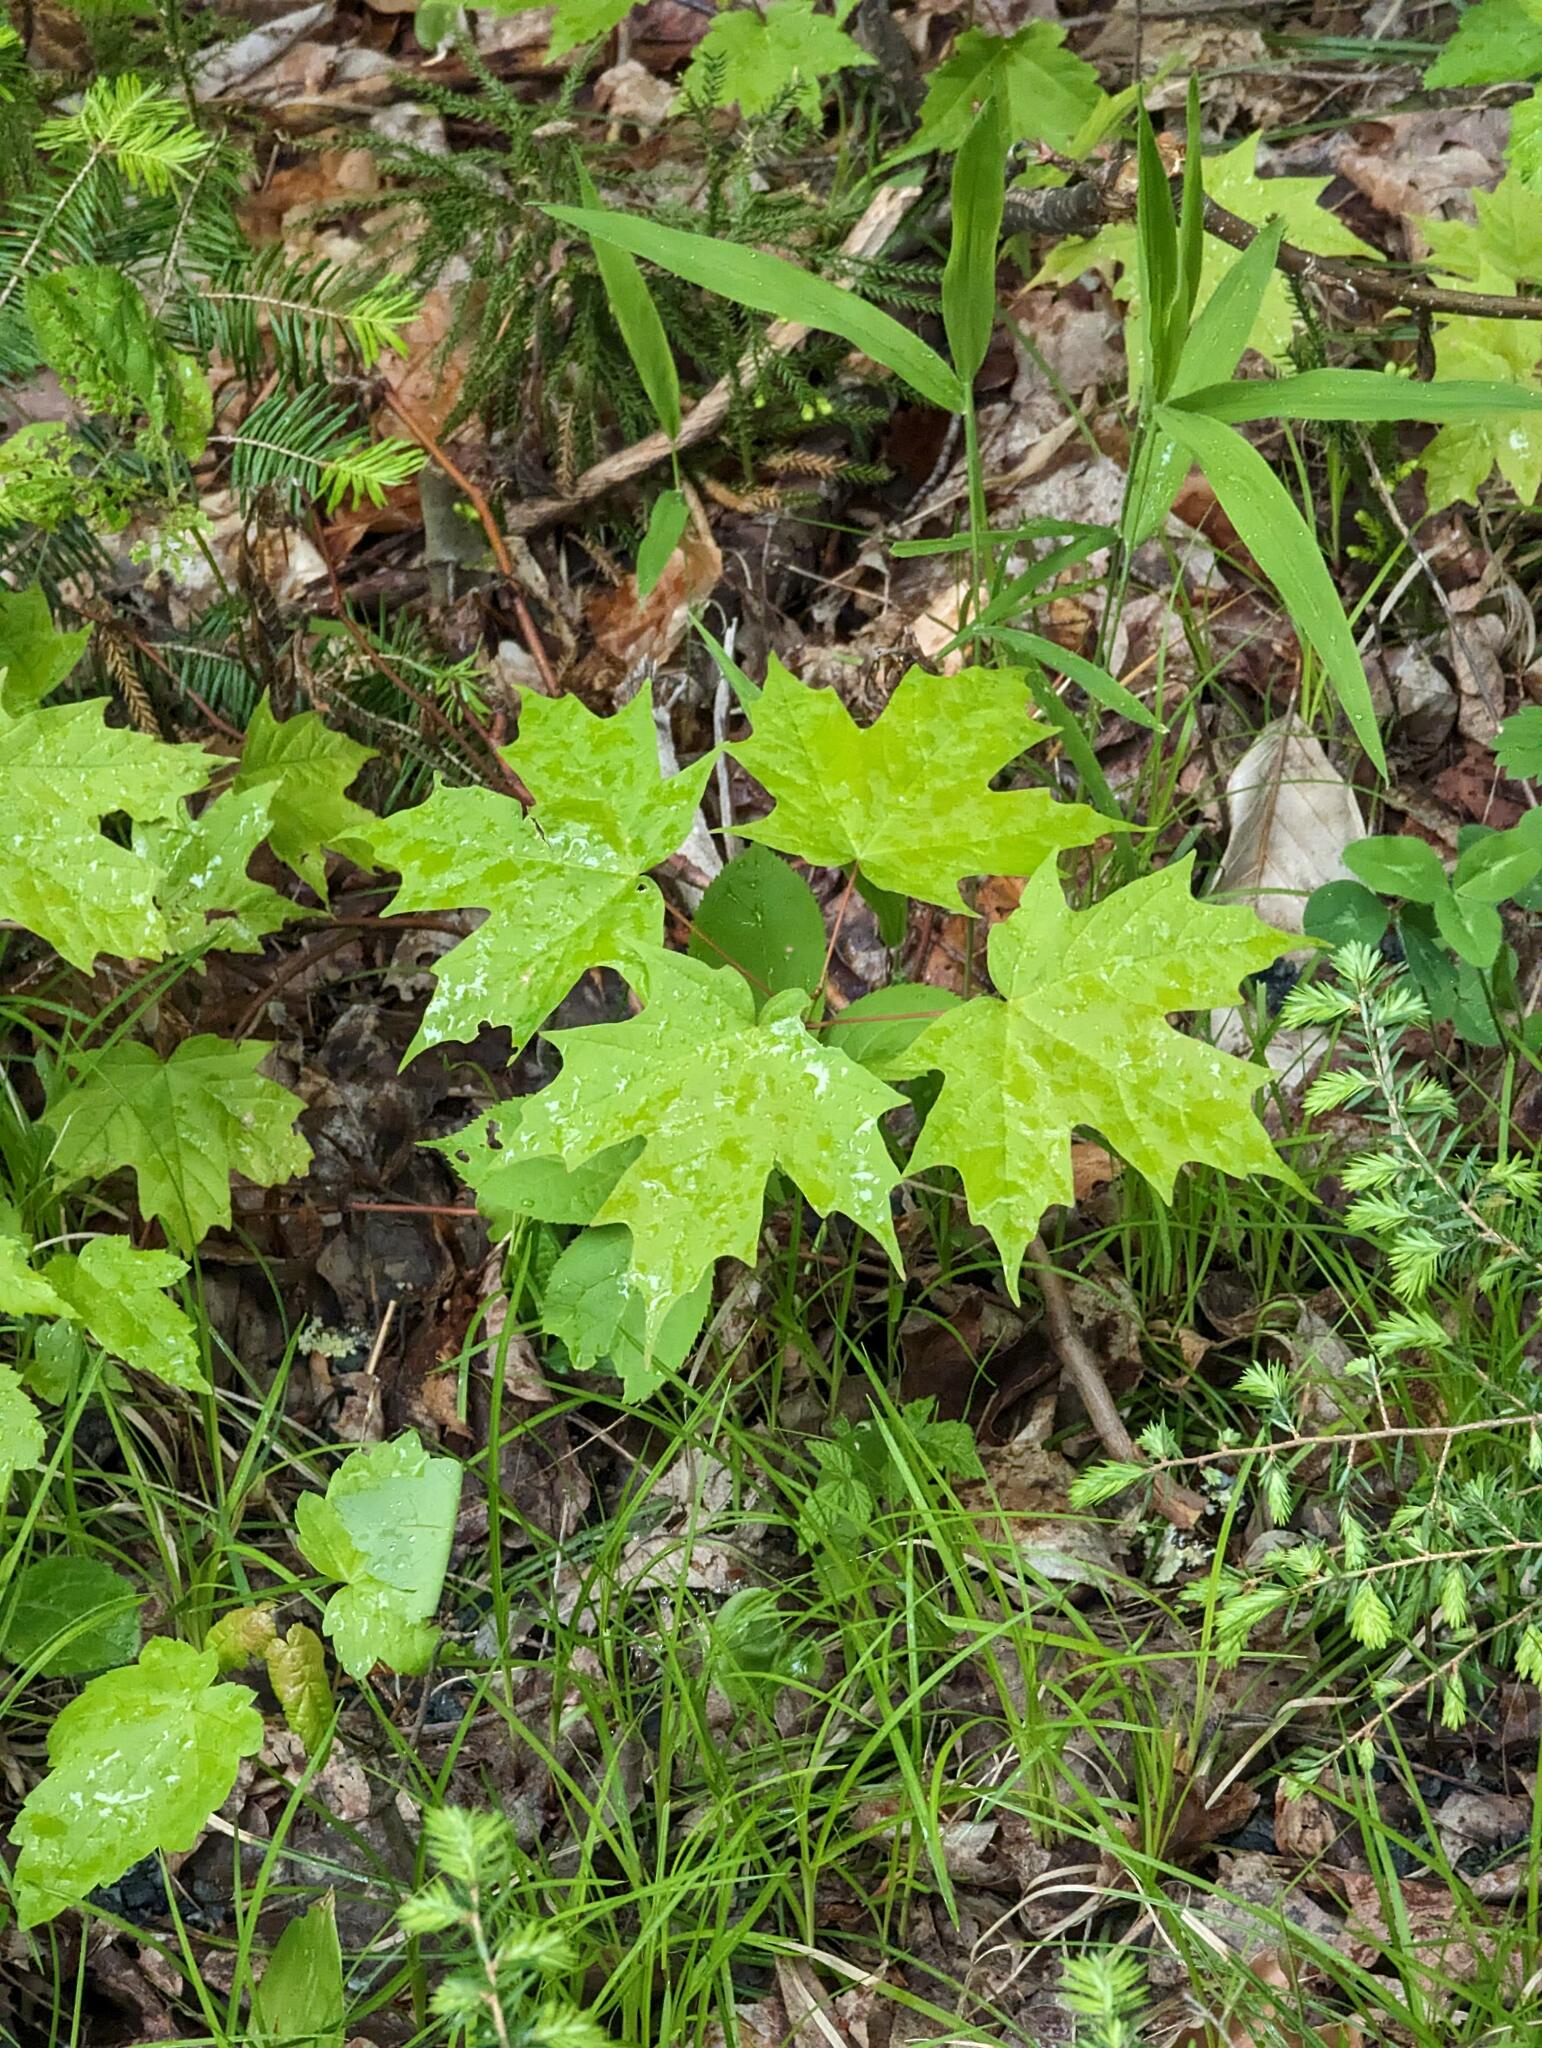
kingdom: Plantae
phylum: Tracheophyta
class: Magnoliopsida
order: Sapindales
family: Sapindaceae
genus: Acer
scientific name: Acer saccharum
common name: Sugar maple
